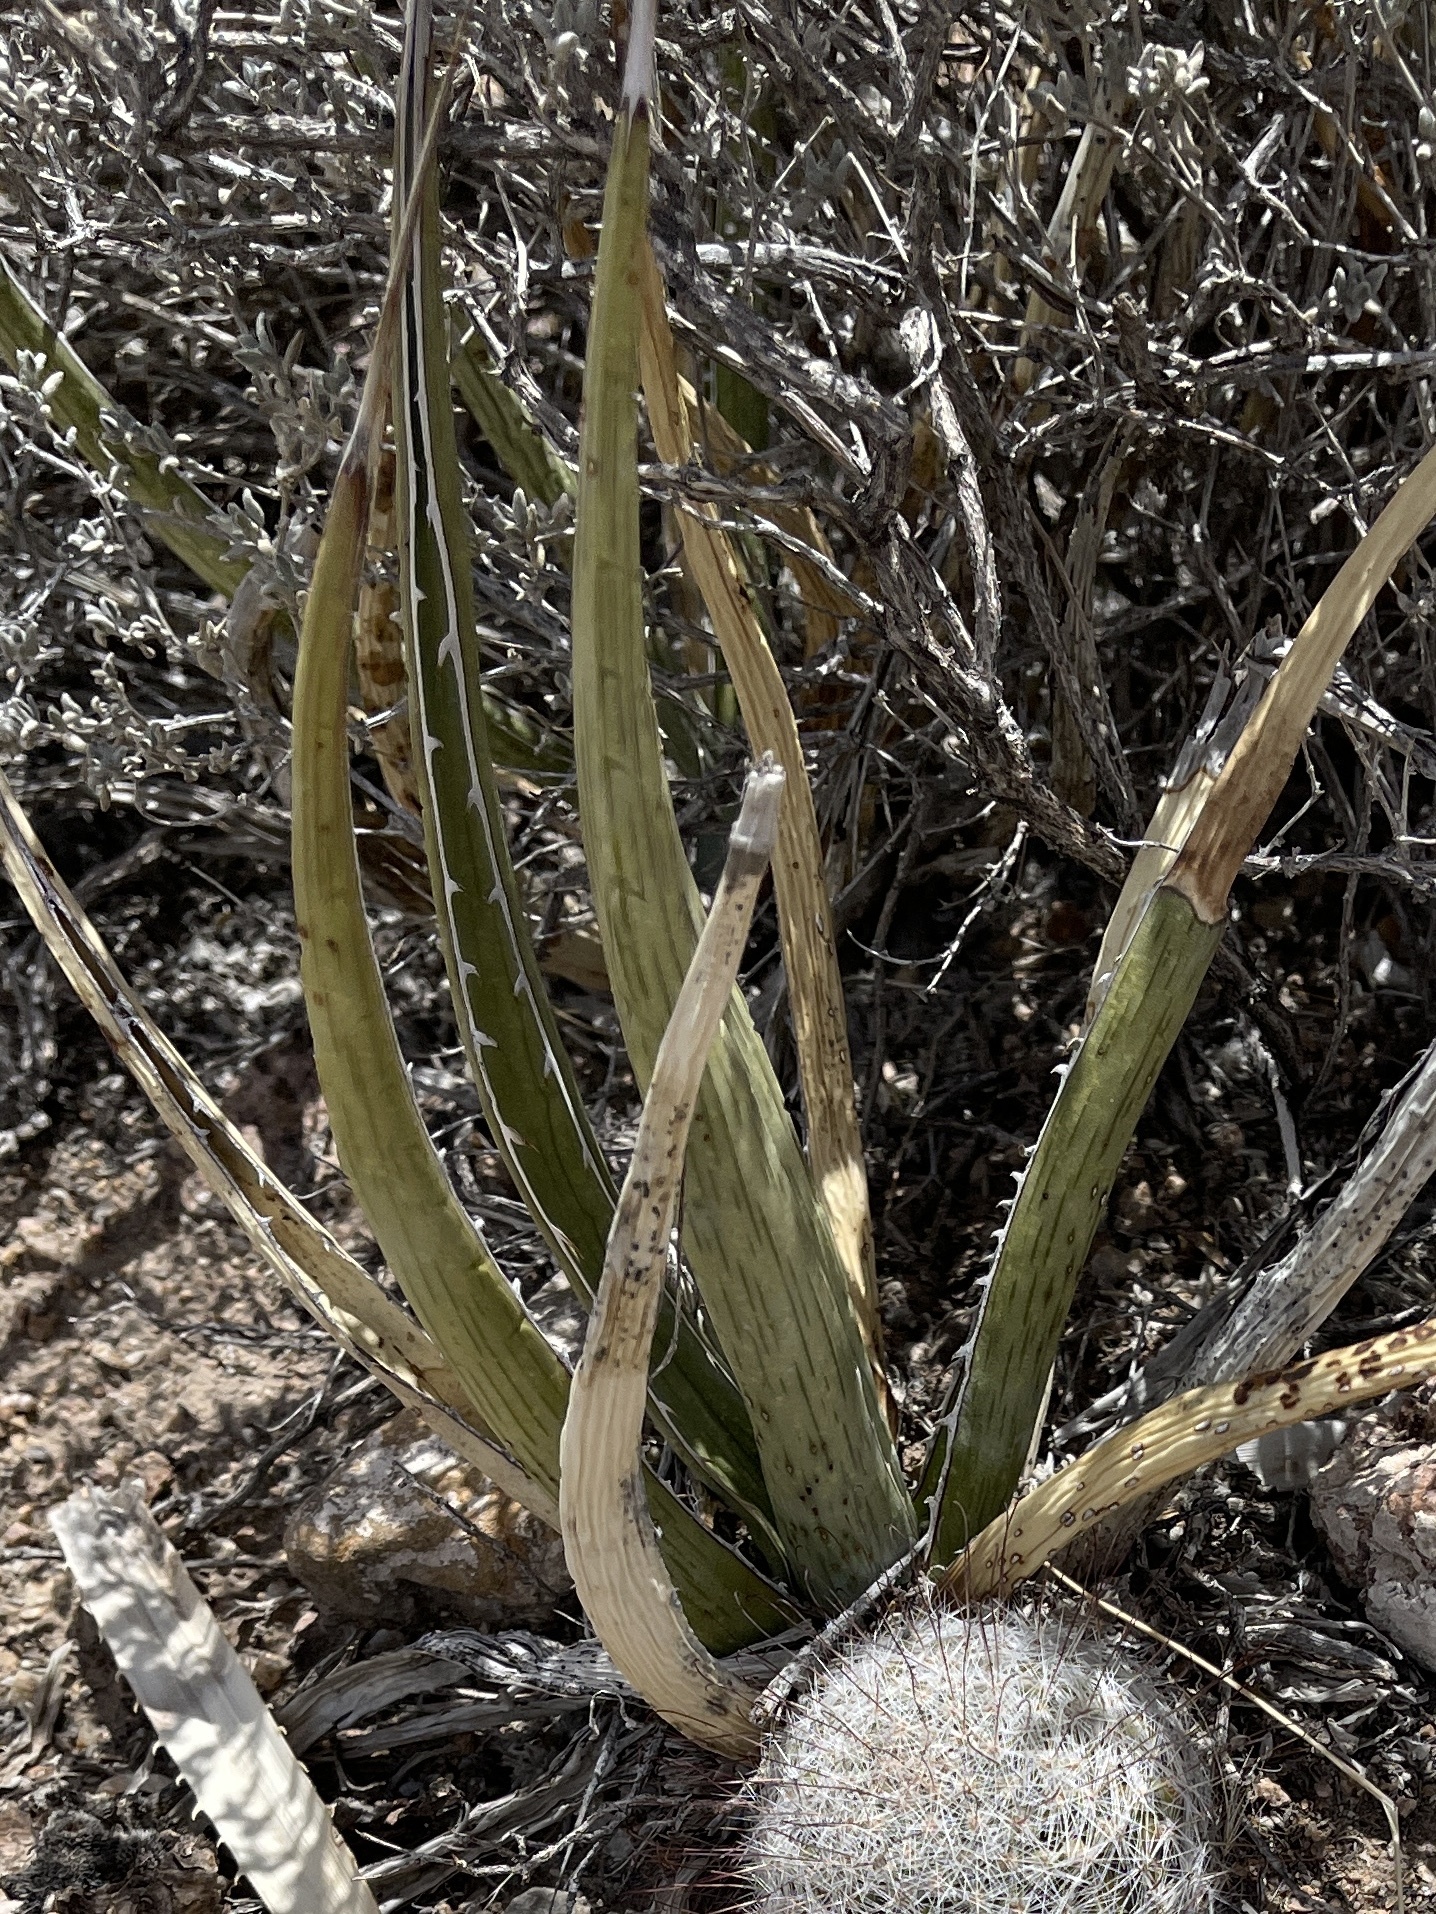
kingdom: Plantae
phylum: Tracheophyta
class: Liliopsida
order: Asparagales
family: Asparagaceae
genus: Agave
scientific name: Agave lechuguilla
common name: Lecheguilla agave
